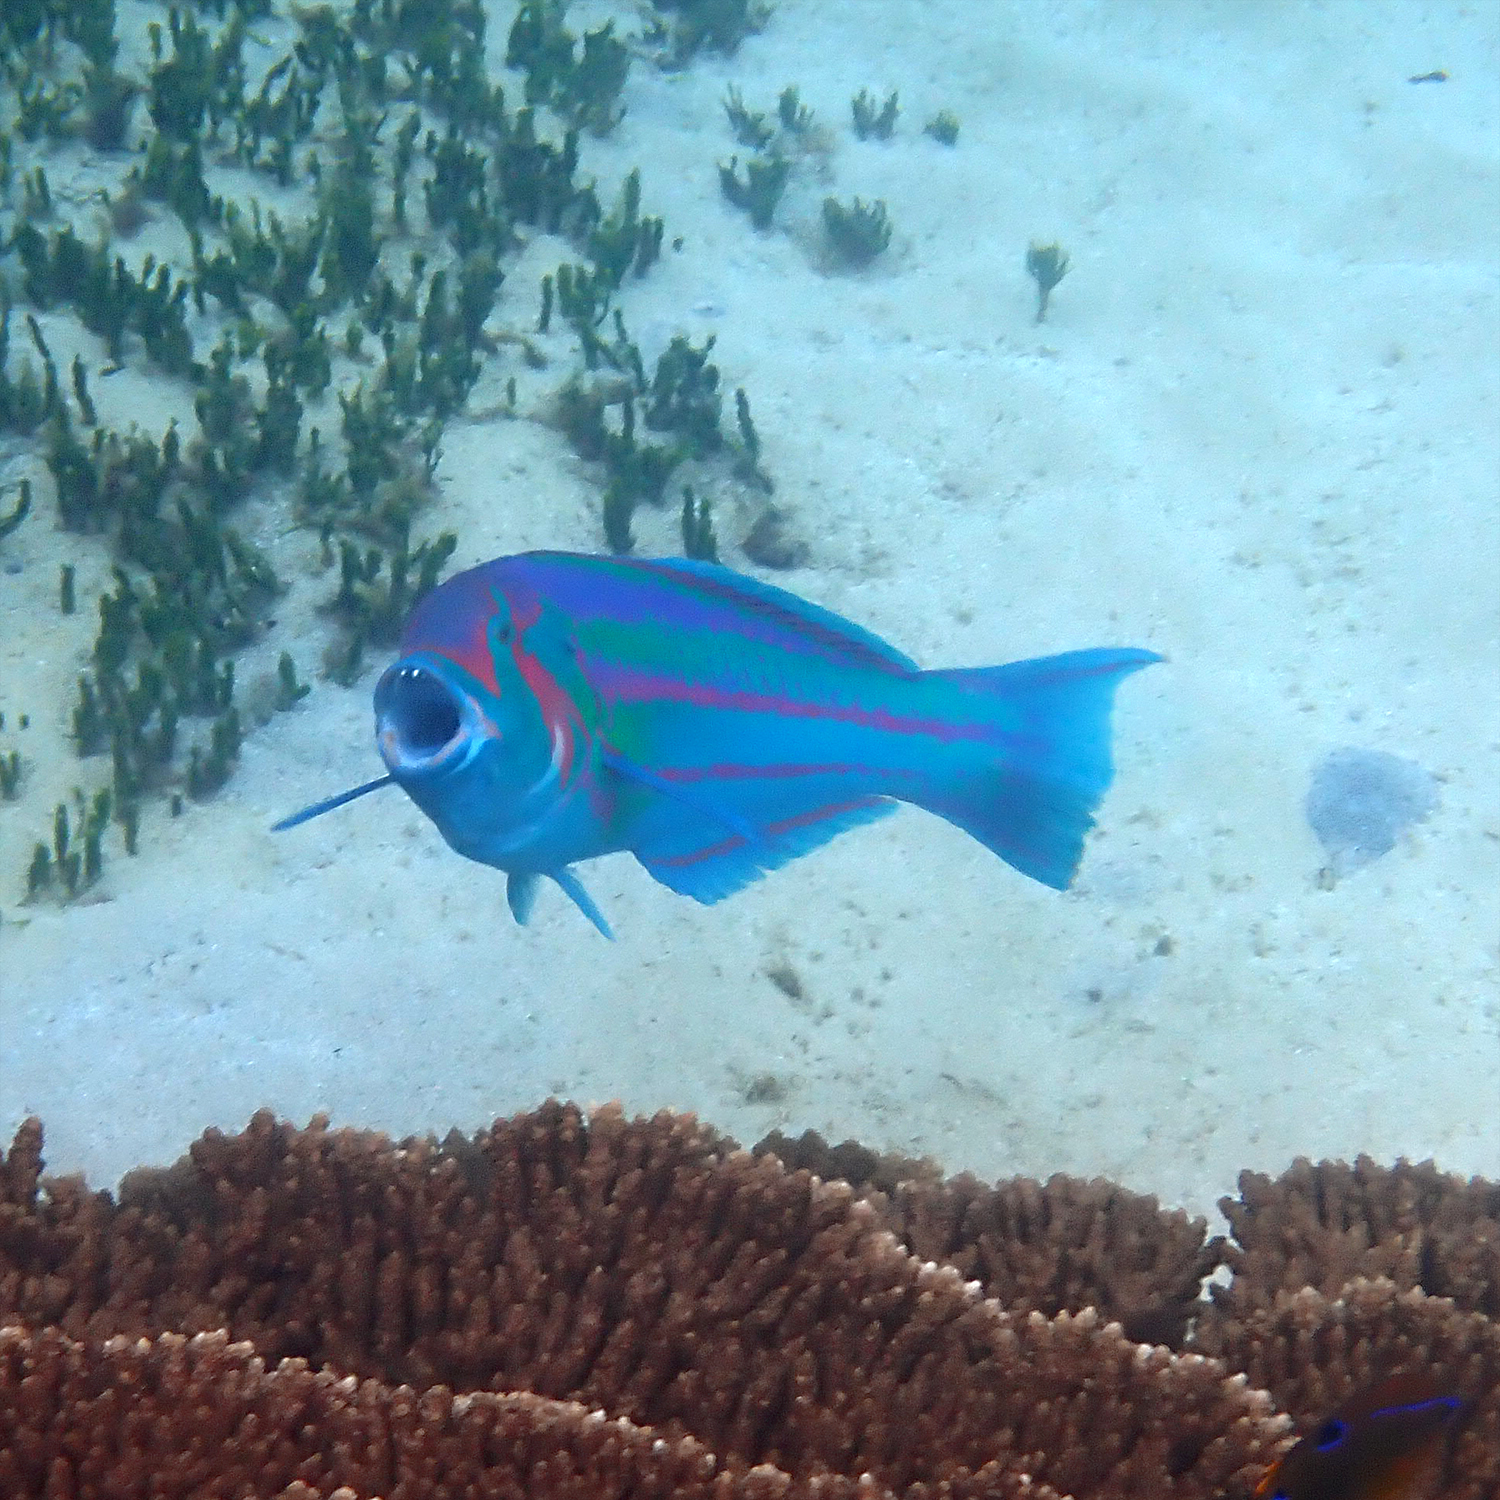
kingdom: Animalia
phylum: Chordata
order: Perciformes
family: Labridae
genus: Thalassoma
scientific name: Thalassoma purpureum
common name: Parrotfish
